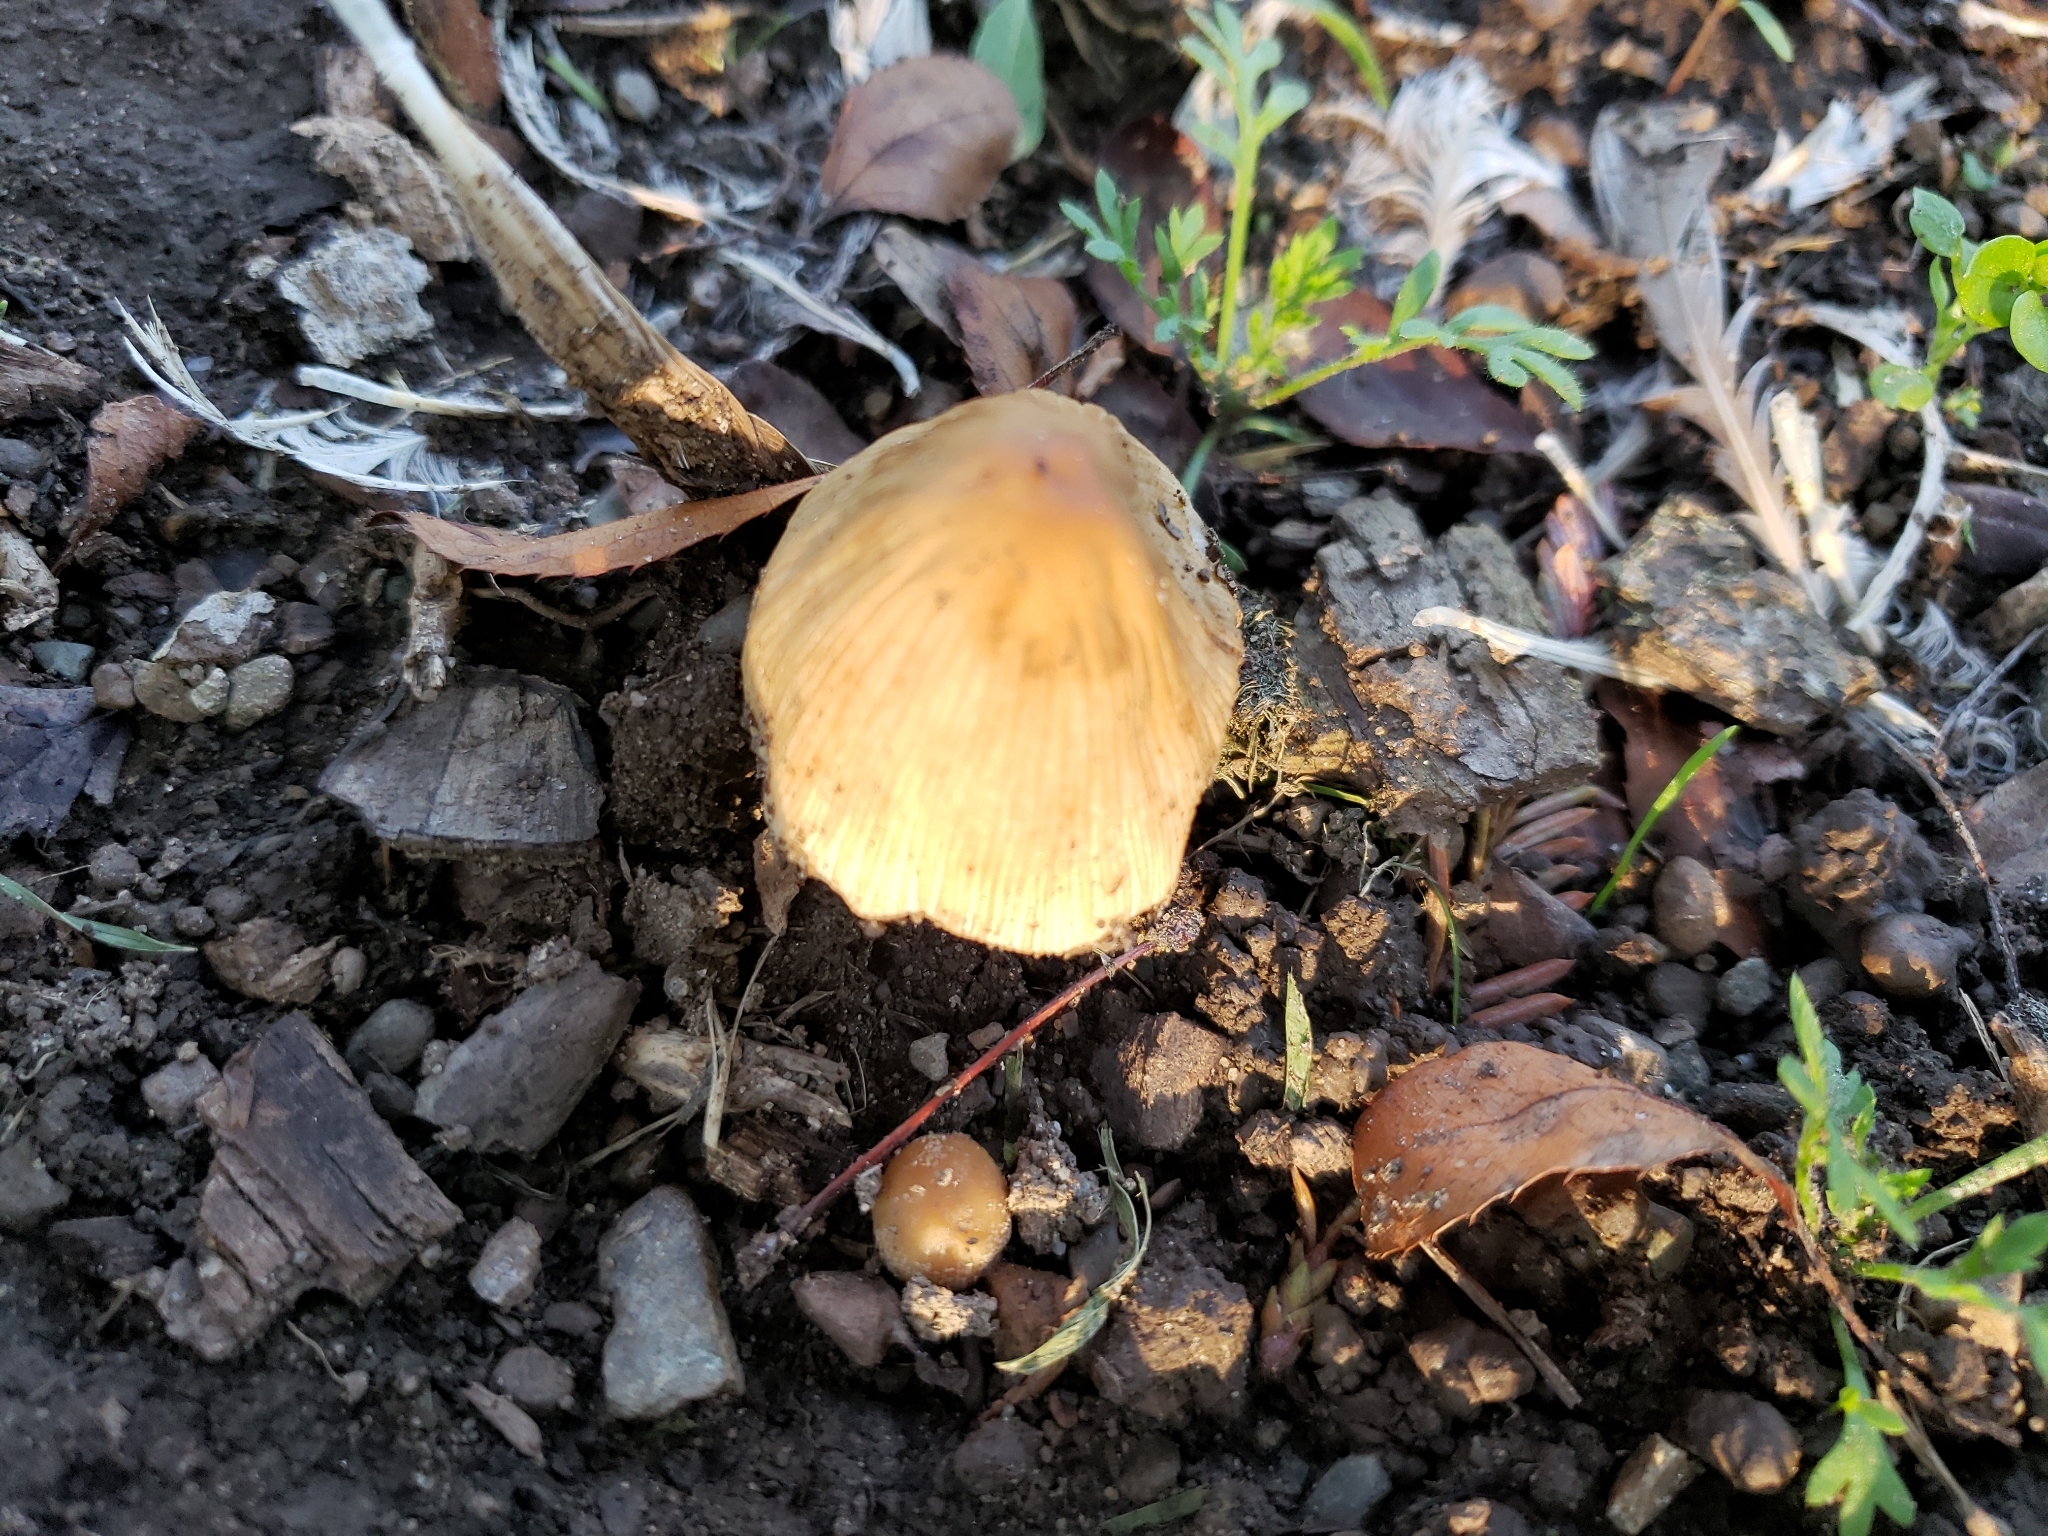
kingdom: Fungi
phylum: Basidiomycota
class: Agaricomycetes
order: Agaricales
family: Psathyrellaceae
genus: Coprinellus
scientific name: Coprinellus micaceus
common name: Glistening ink-cap
